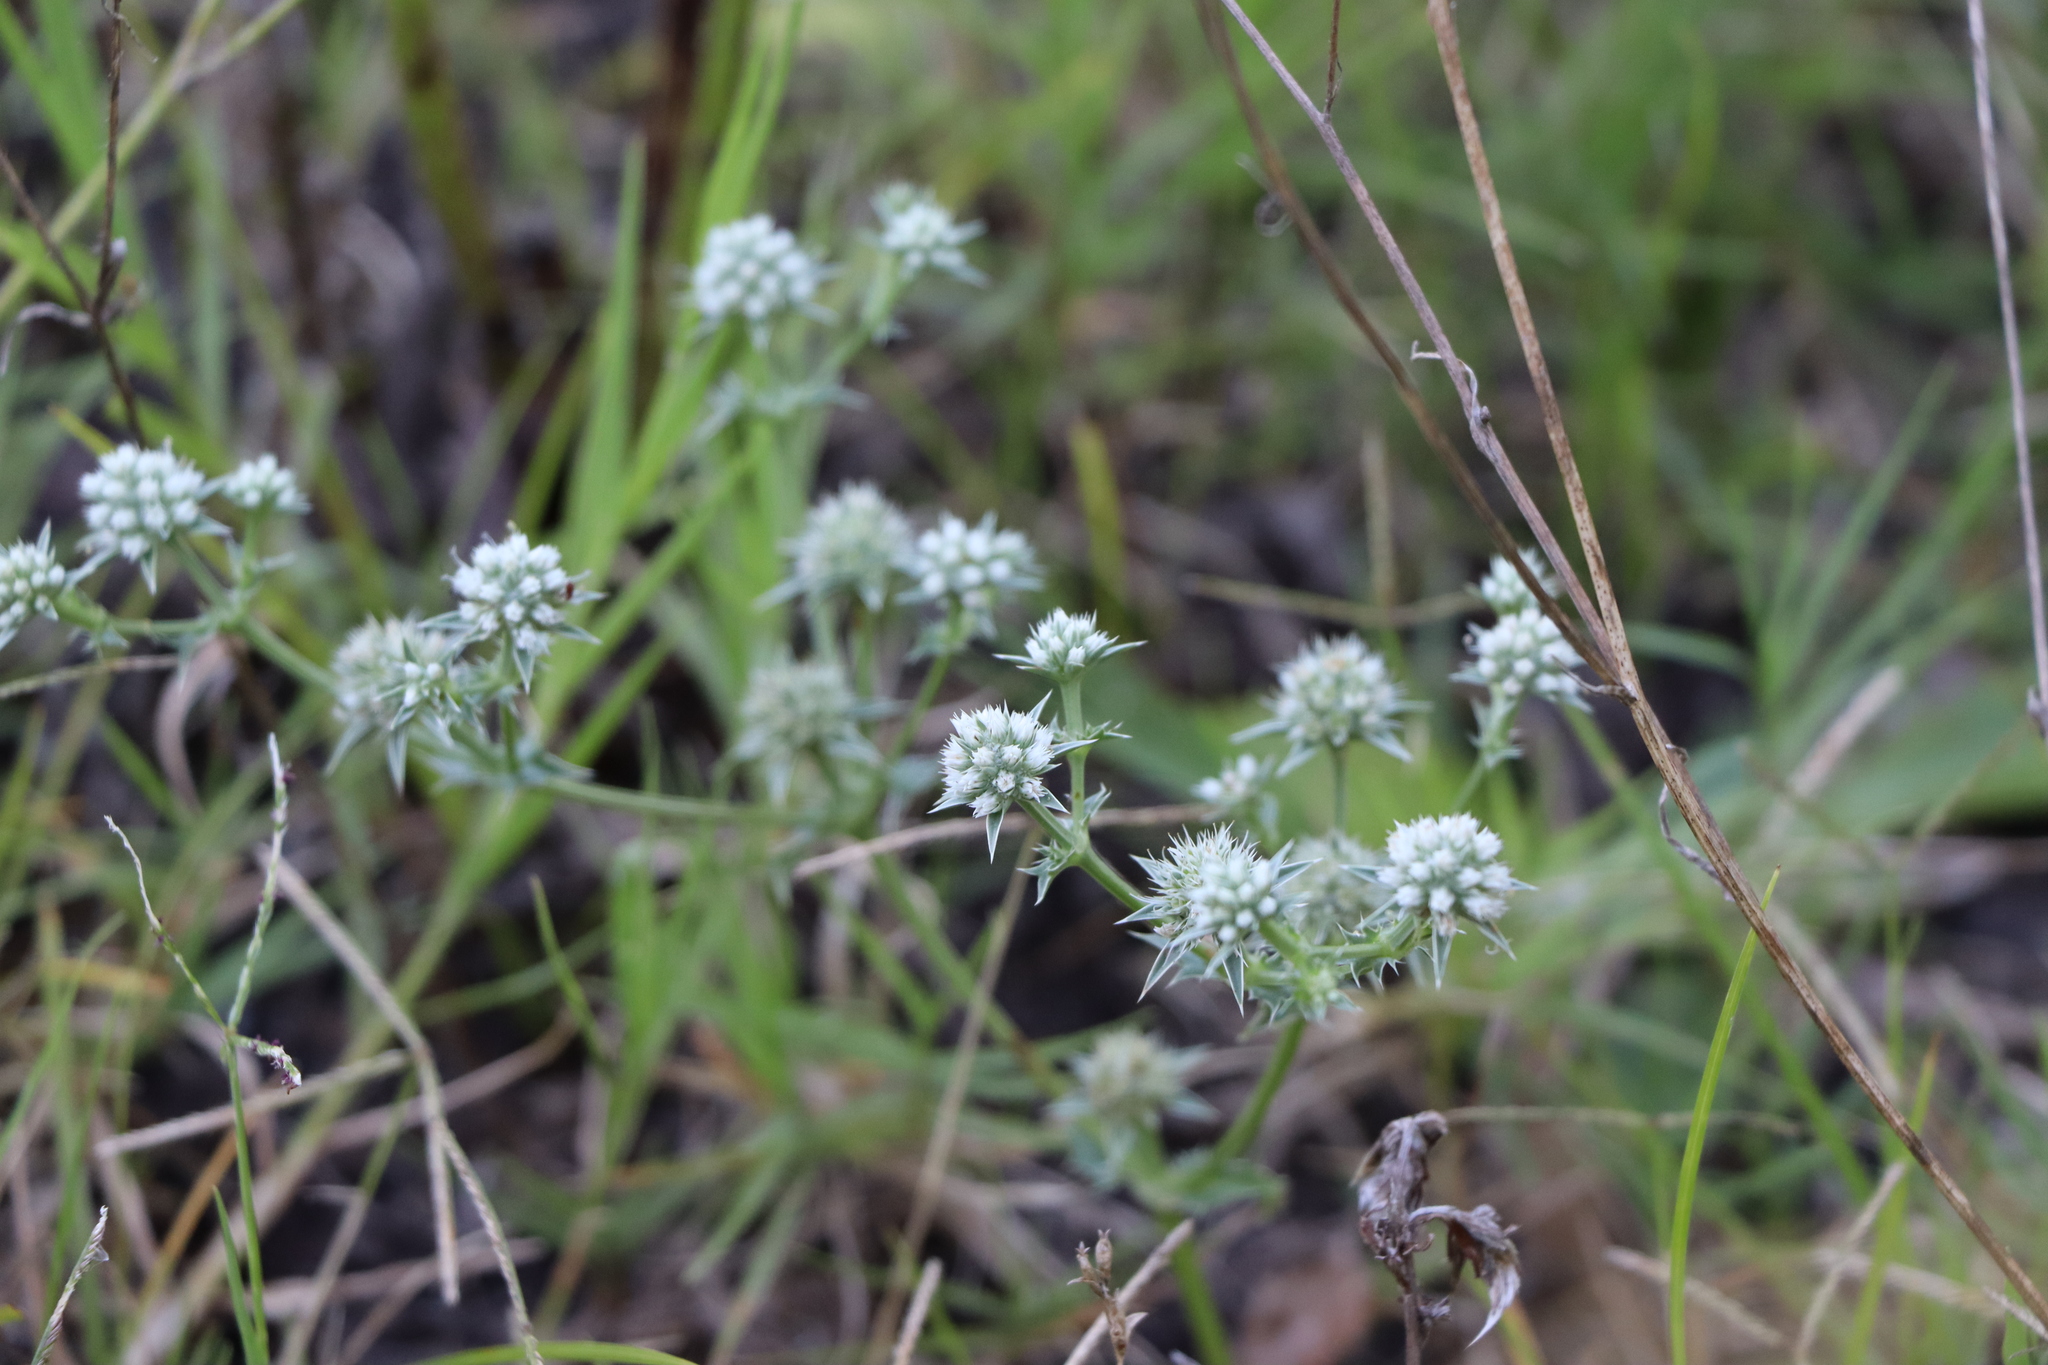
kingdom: Plantae
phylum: Tracheophyta
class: Magnoliopsida
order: Apiales
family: Apiaceae
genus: Eryngium
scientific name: Eryngium nudicaule
